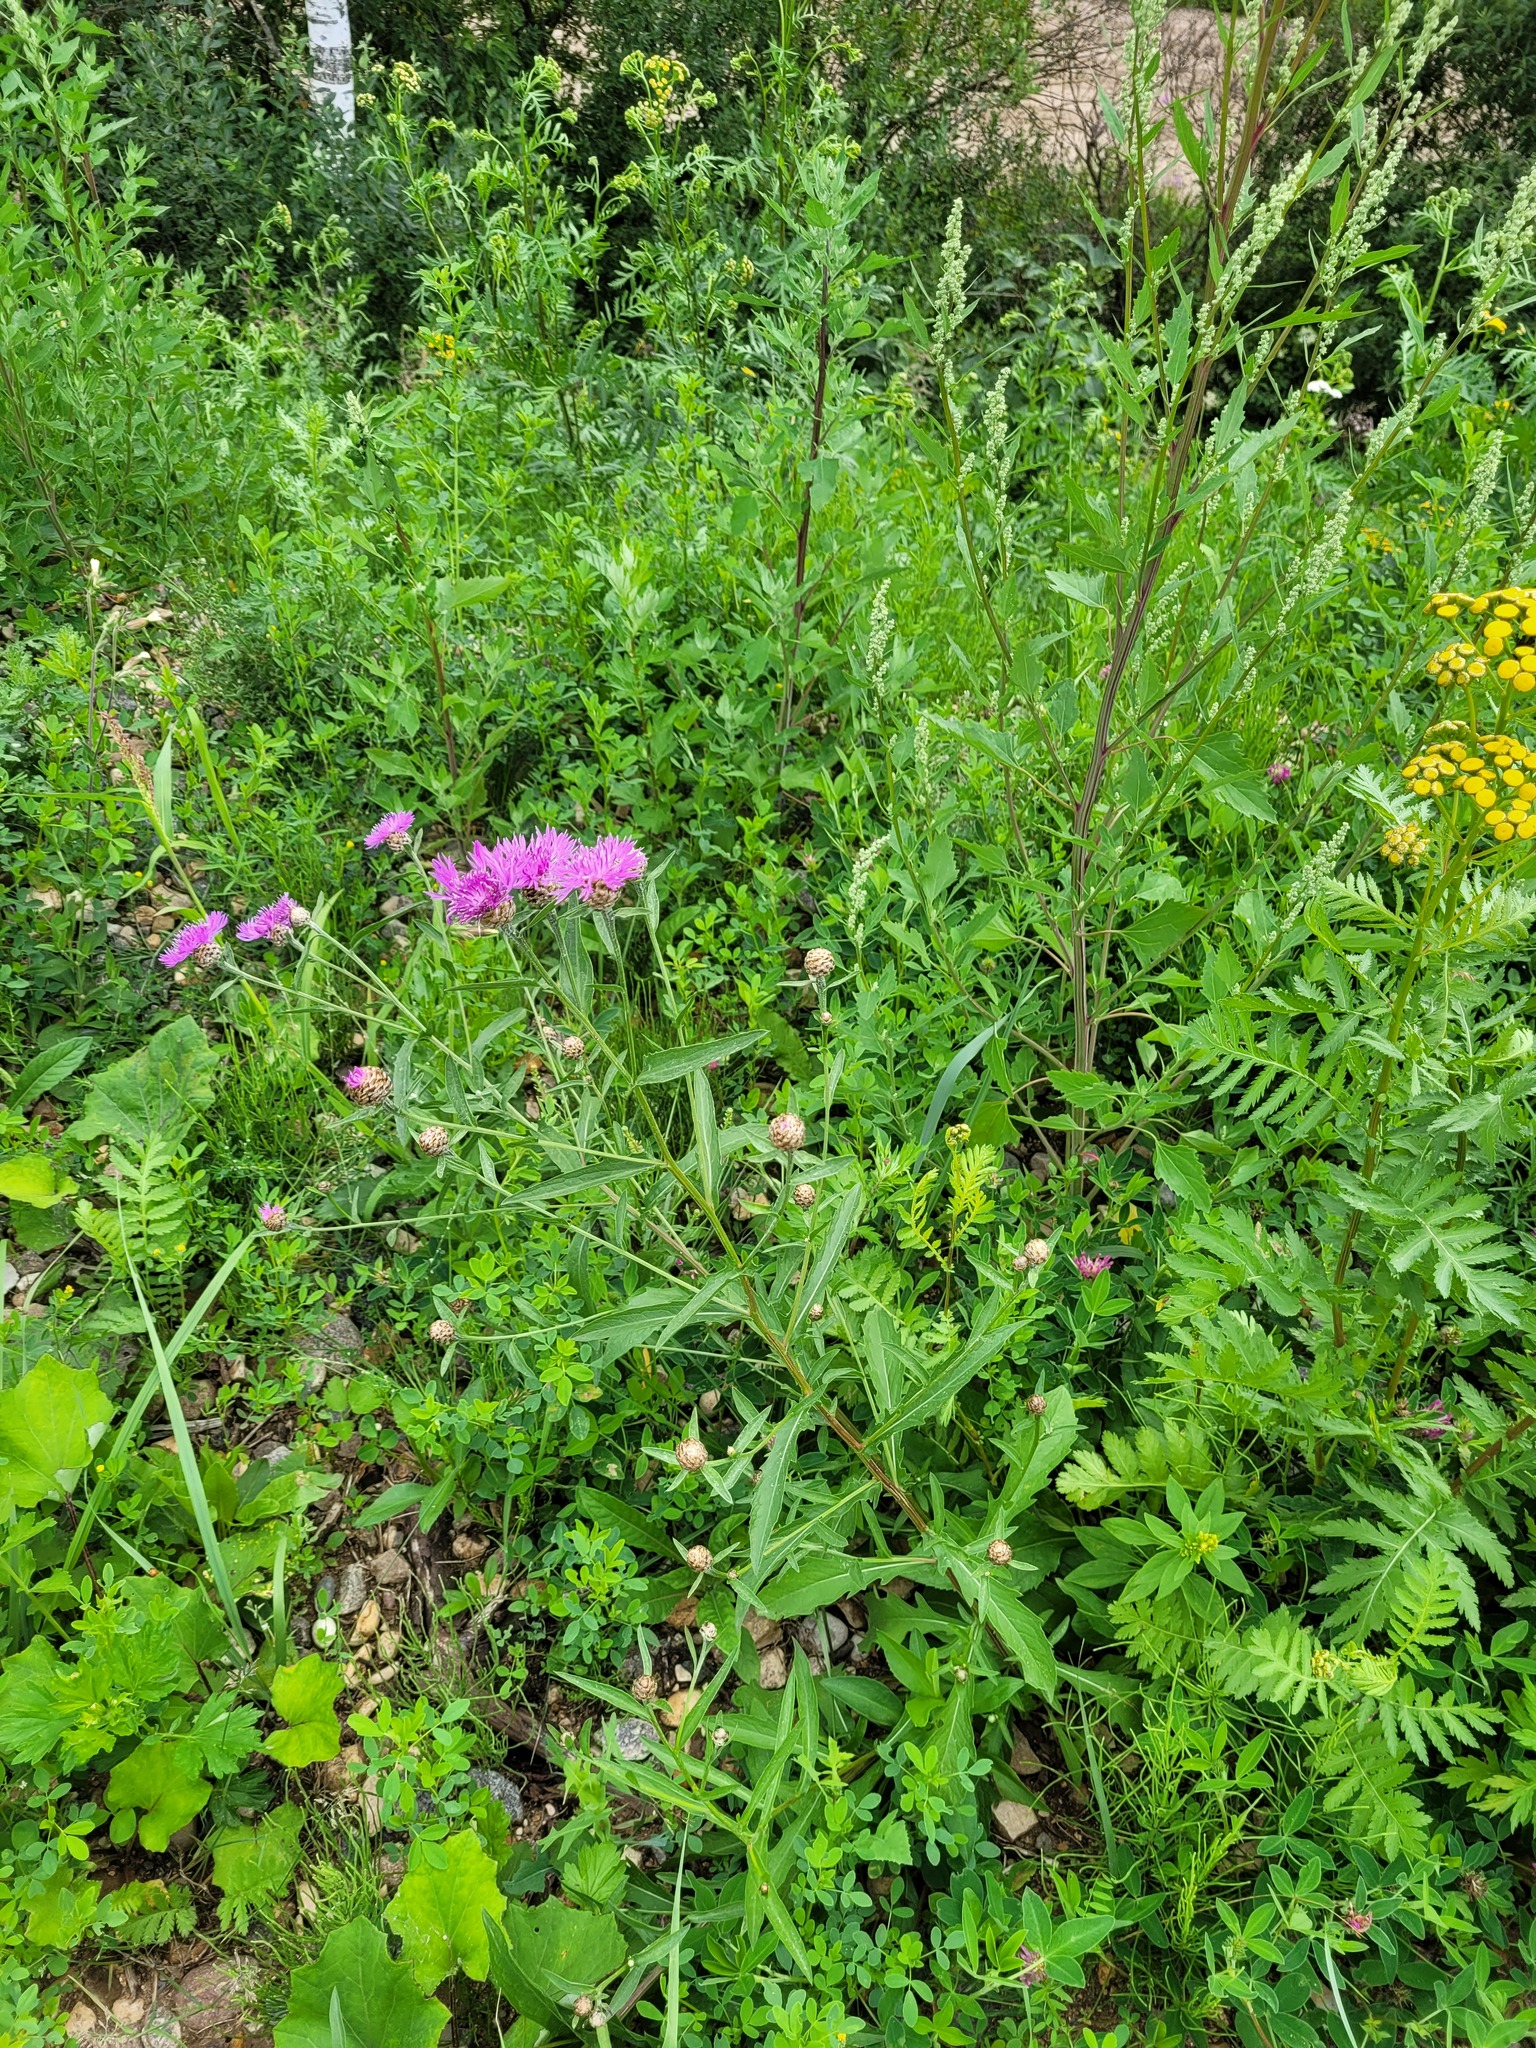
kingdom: Plantae
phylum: Tracheophyta
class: Magnoliopsida
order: Asterales
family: Asteraceae
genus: Centaurea
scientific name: Centaurea jacea
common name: Brown knapweed
